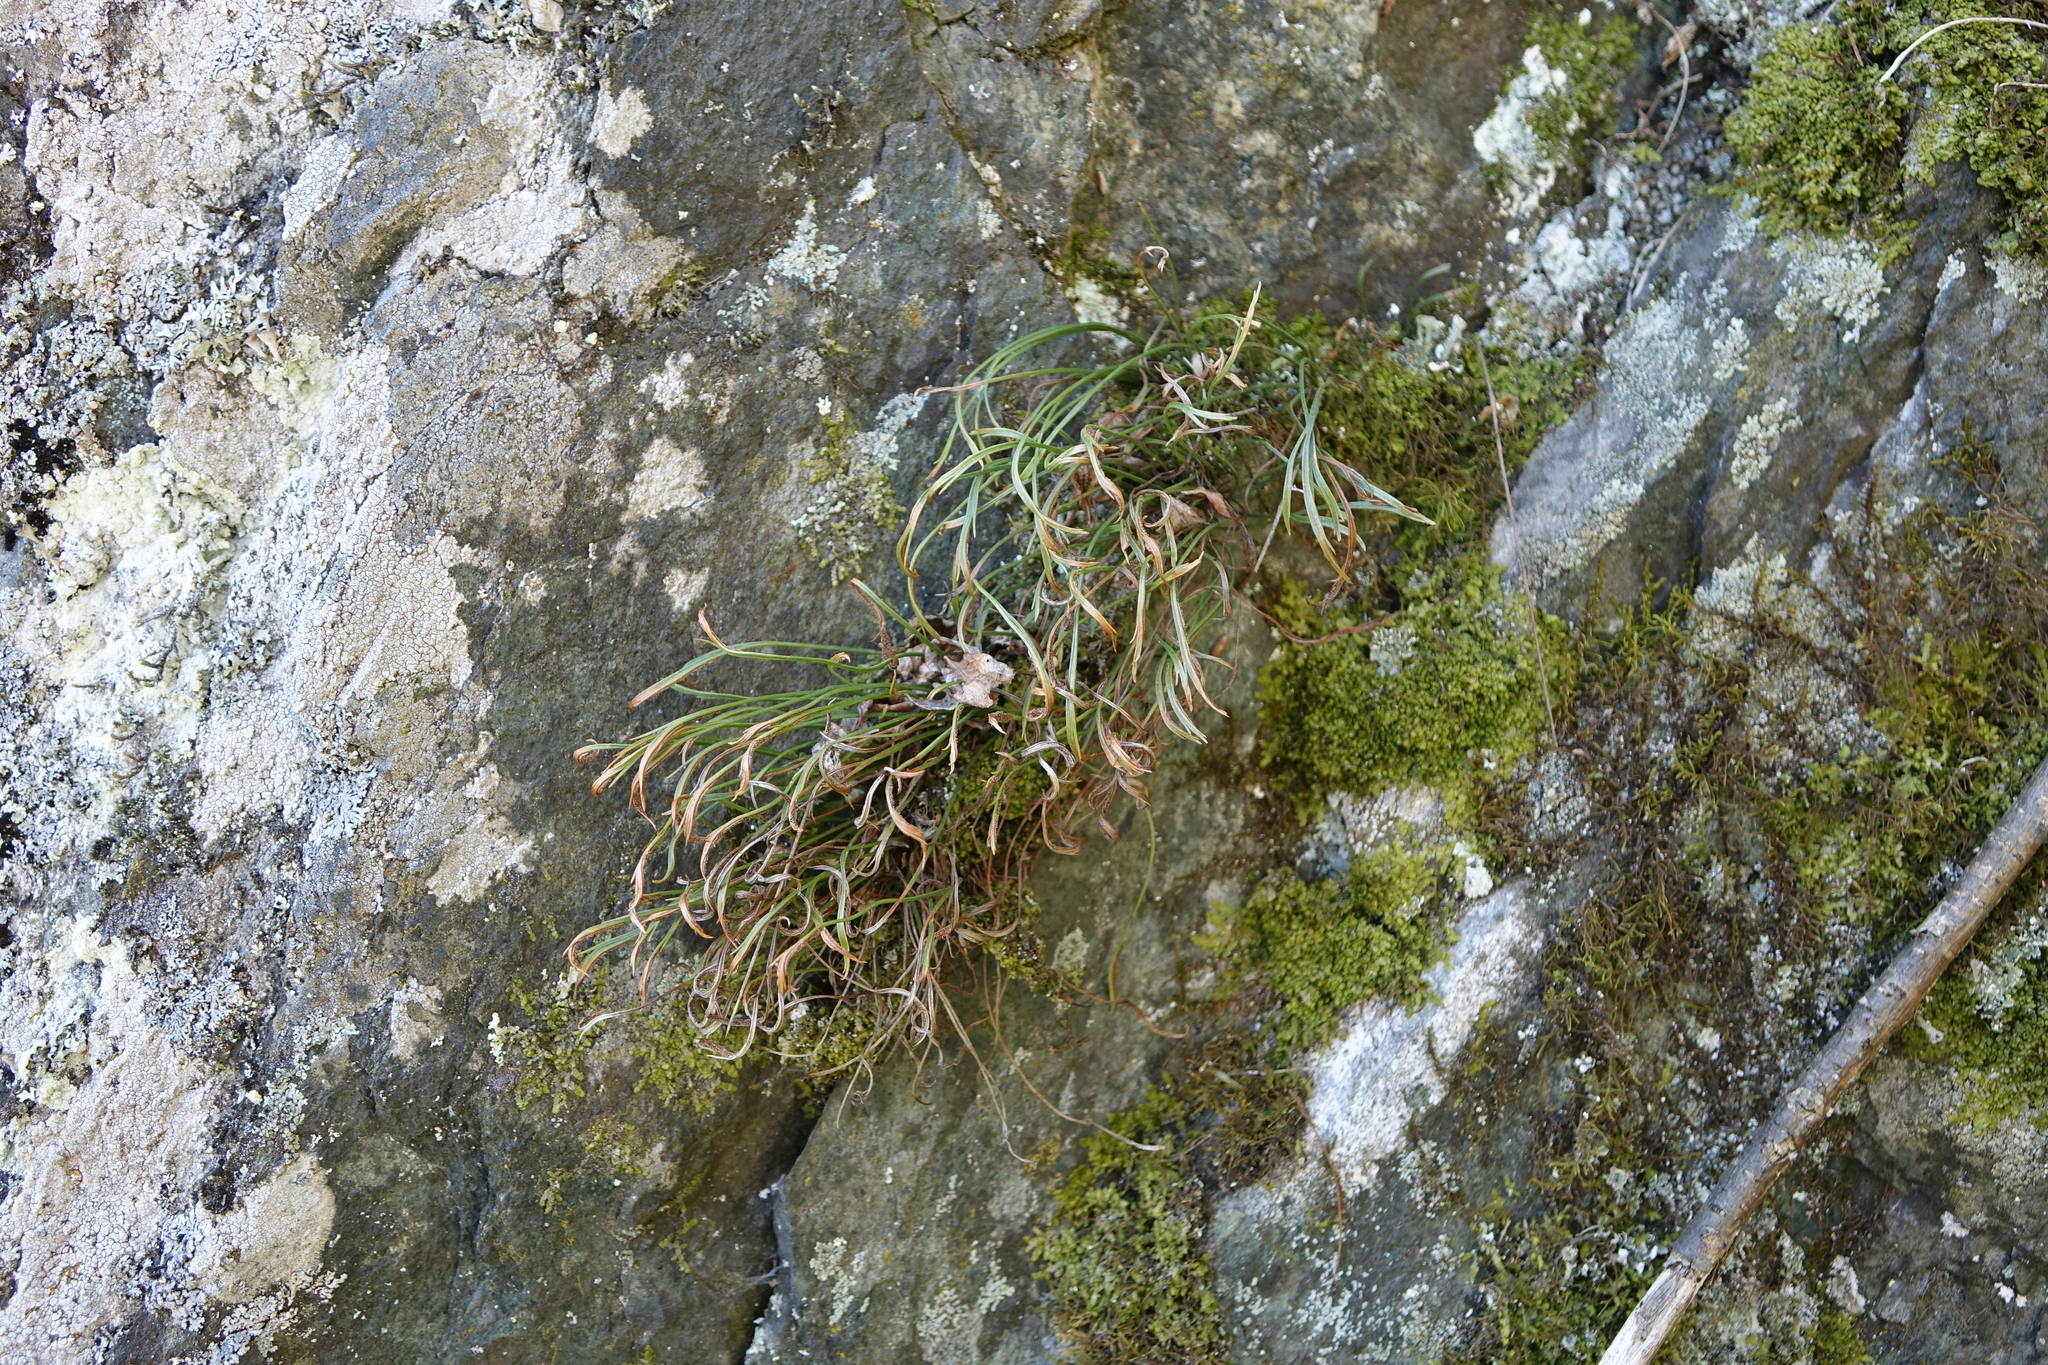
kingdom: Plantae
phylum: Tracheophyta
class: Polypodiopsida
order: Polypodiales
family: Aspleniaceae
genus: Asplenium
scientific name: Asplenium septentrionale
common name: Forked spleenwort
